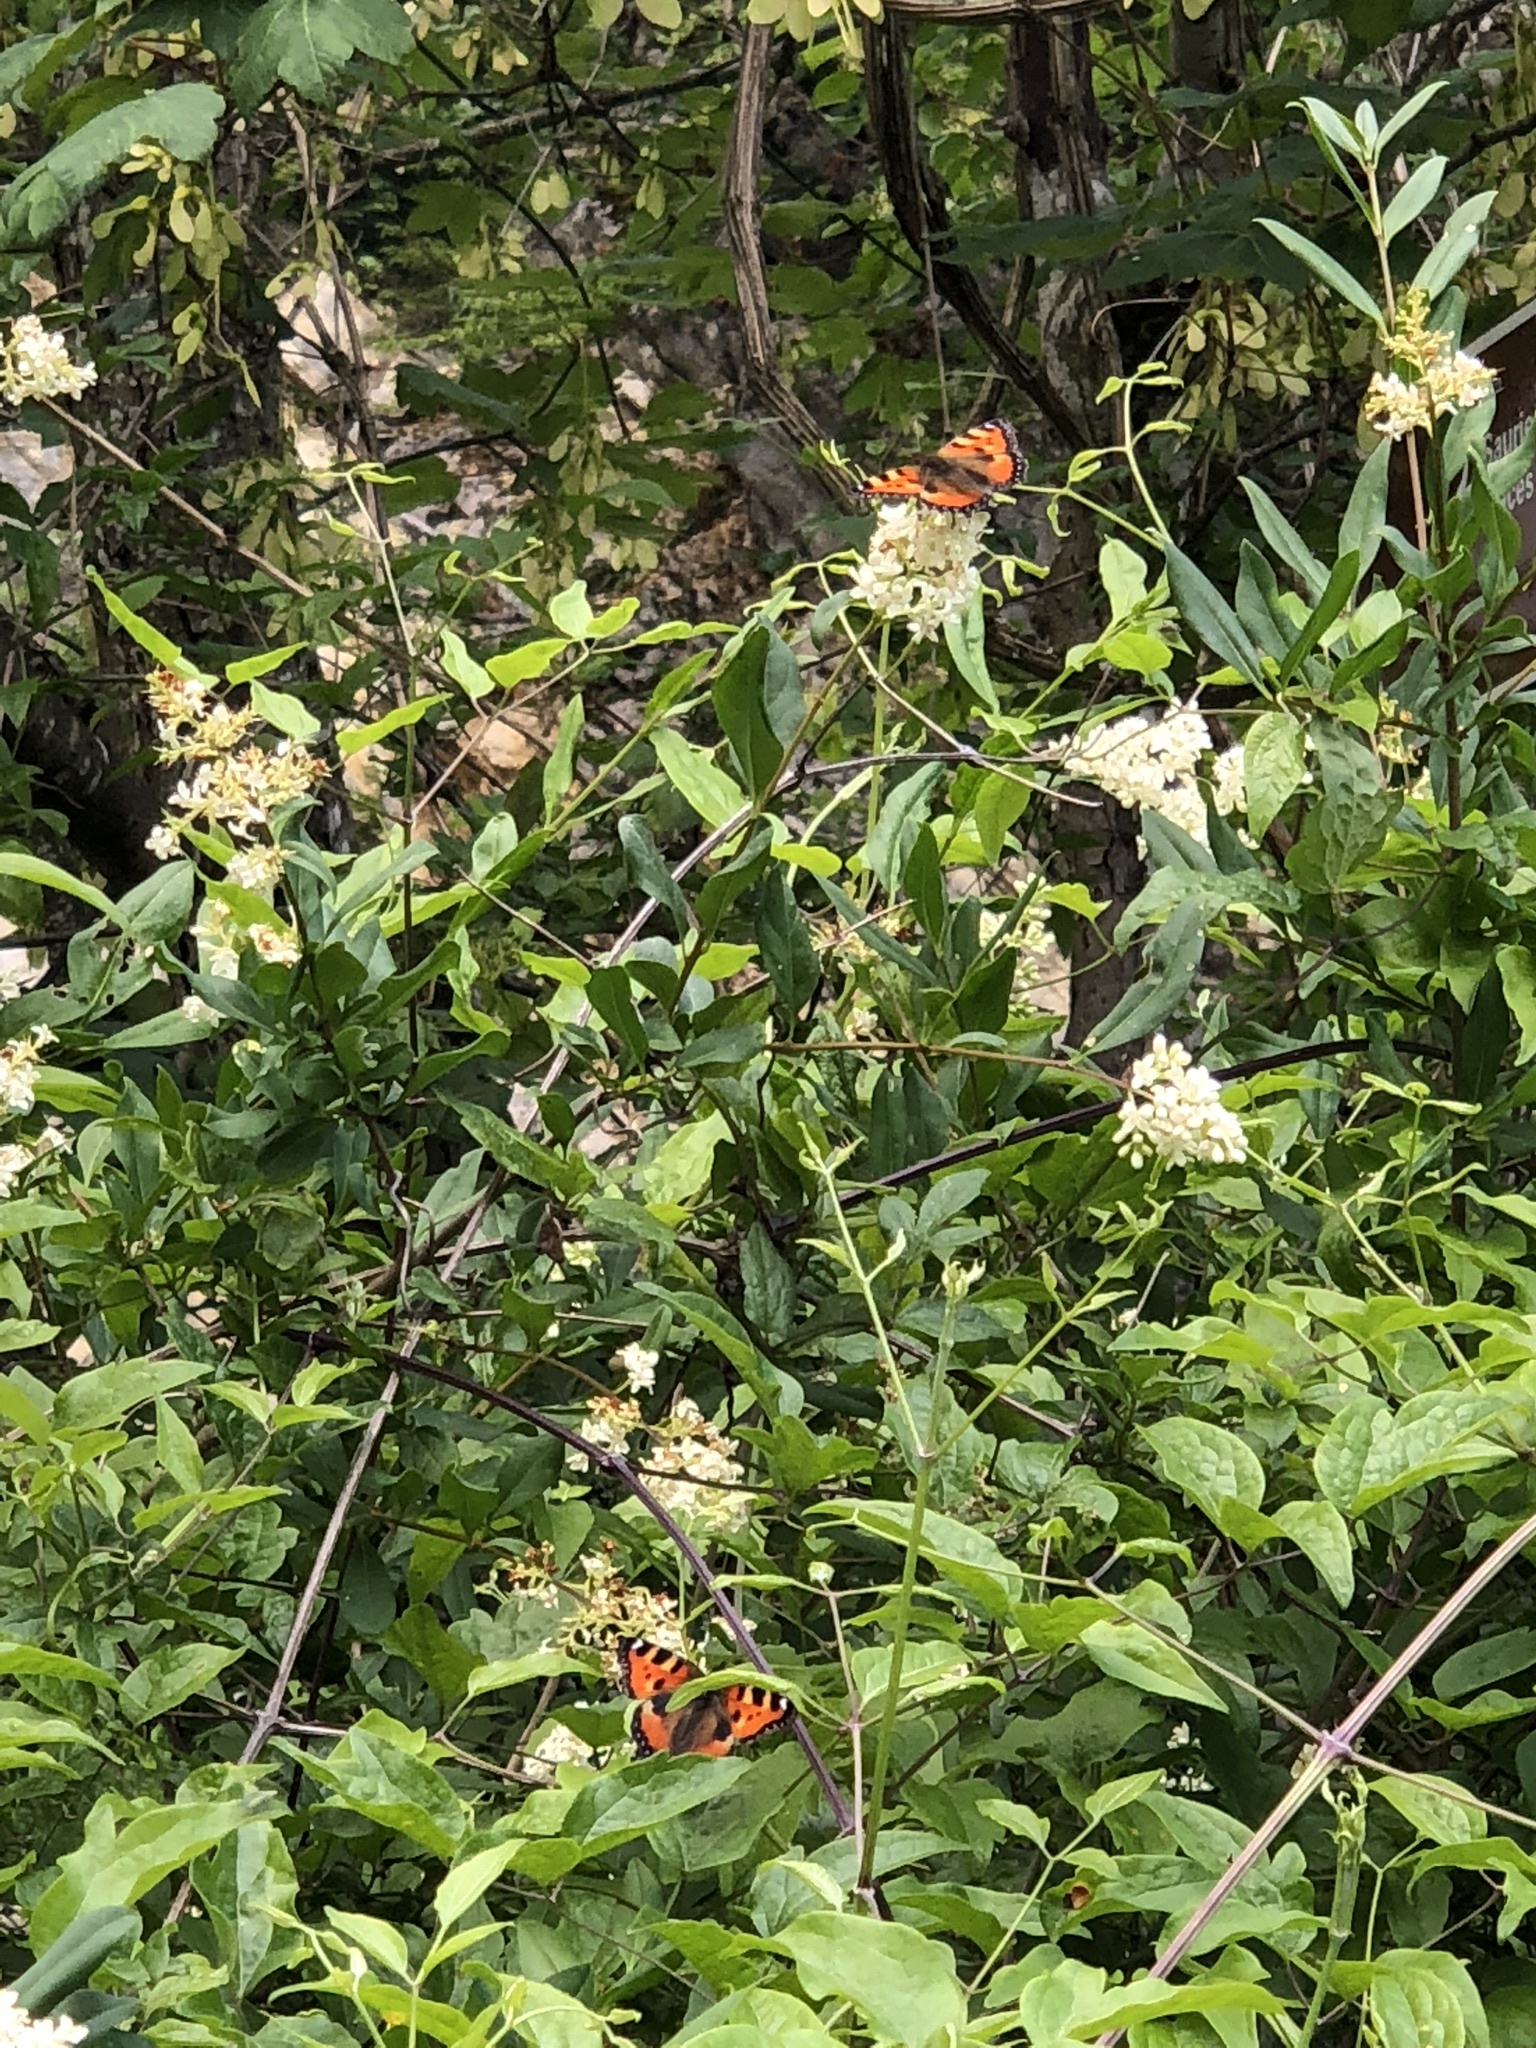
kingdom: Animalia
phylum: Arthropoda
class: Insecta
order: Lepidoptera
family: Nymphalidae
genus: Aglais
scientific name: Aglais urticae
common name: Small tortoiseshell
